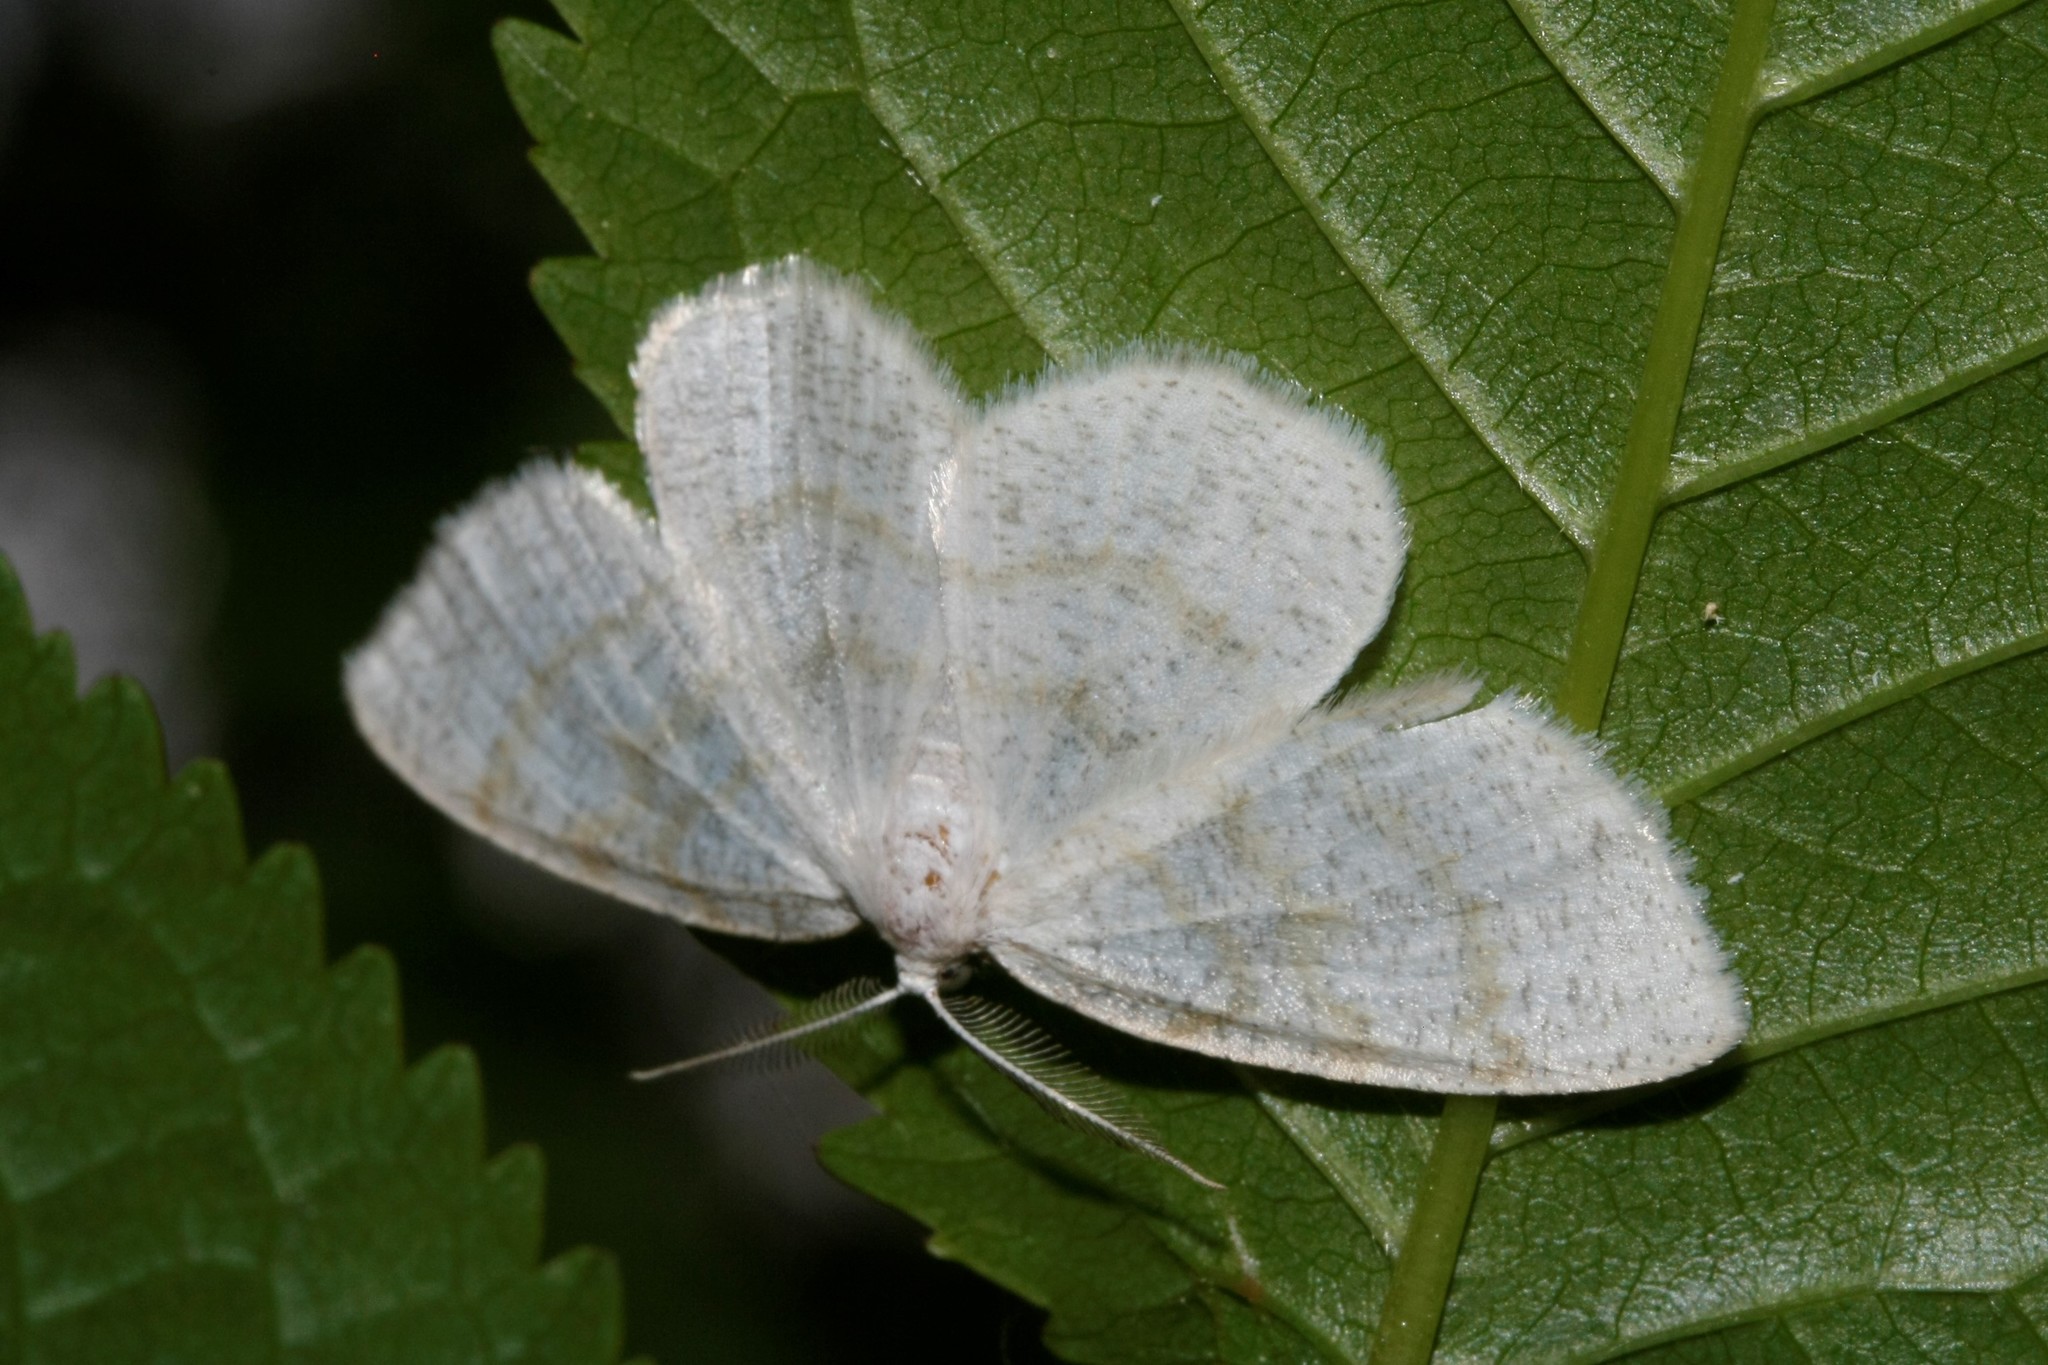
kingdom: Animalia
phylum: Arthropoda
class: Insecta
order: Lepidoptera
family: Geometridae
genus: Cabera
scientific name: Cabera exanthemata
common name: Common wave
